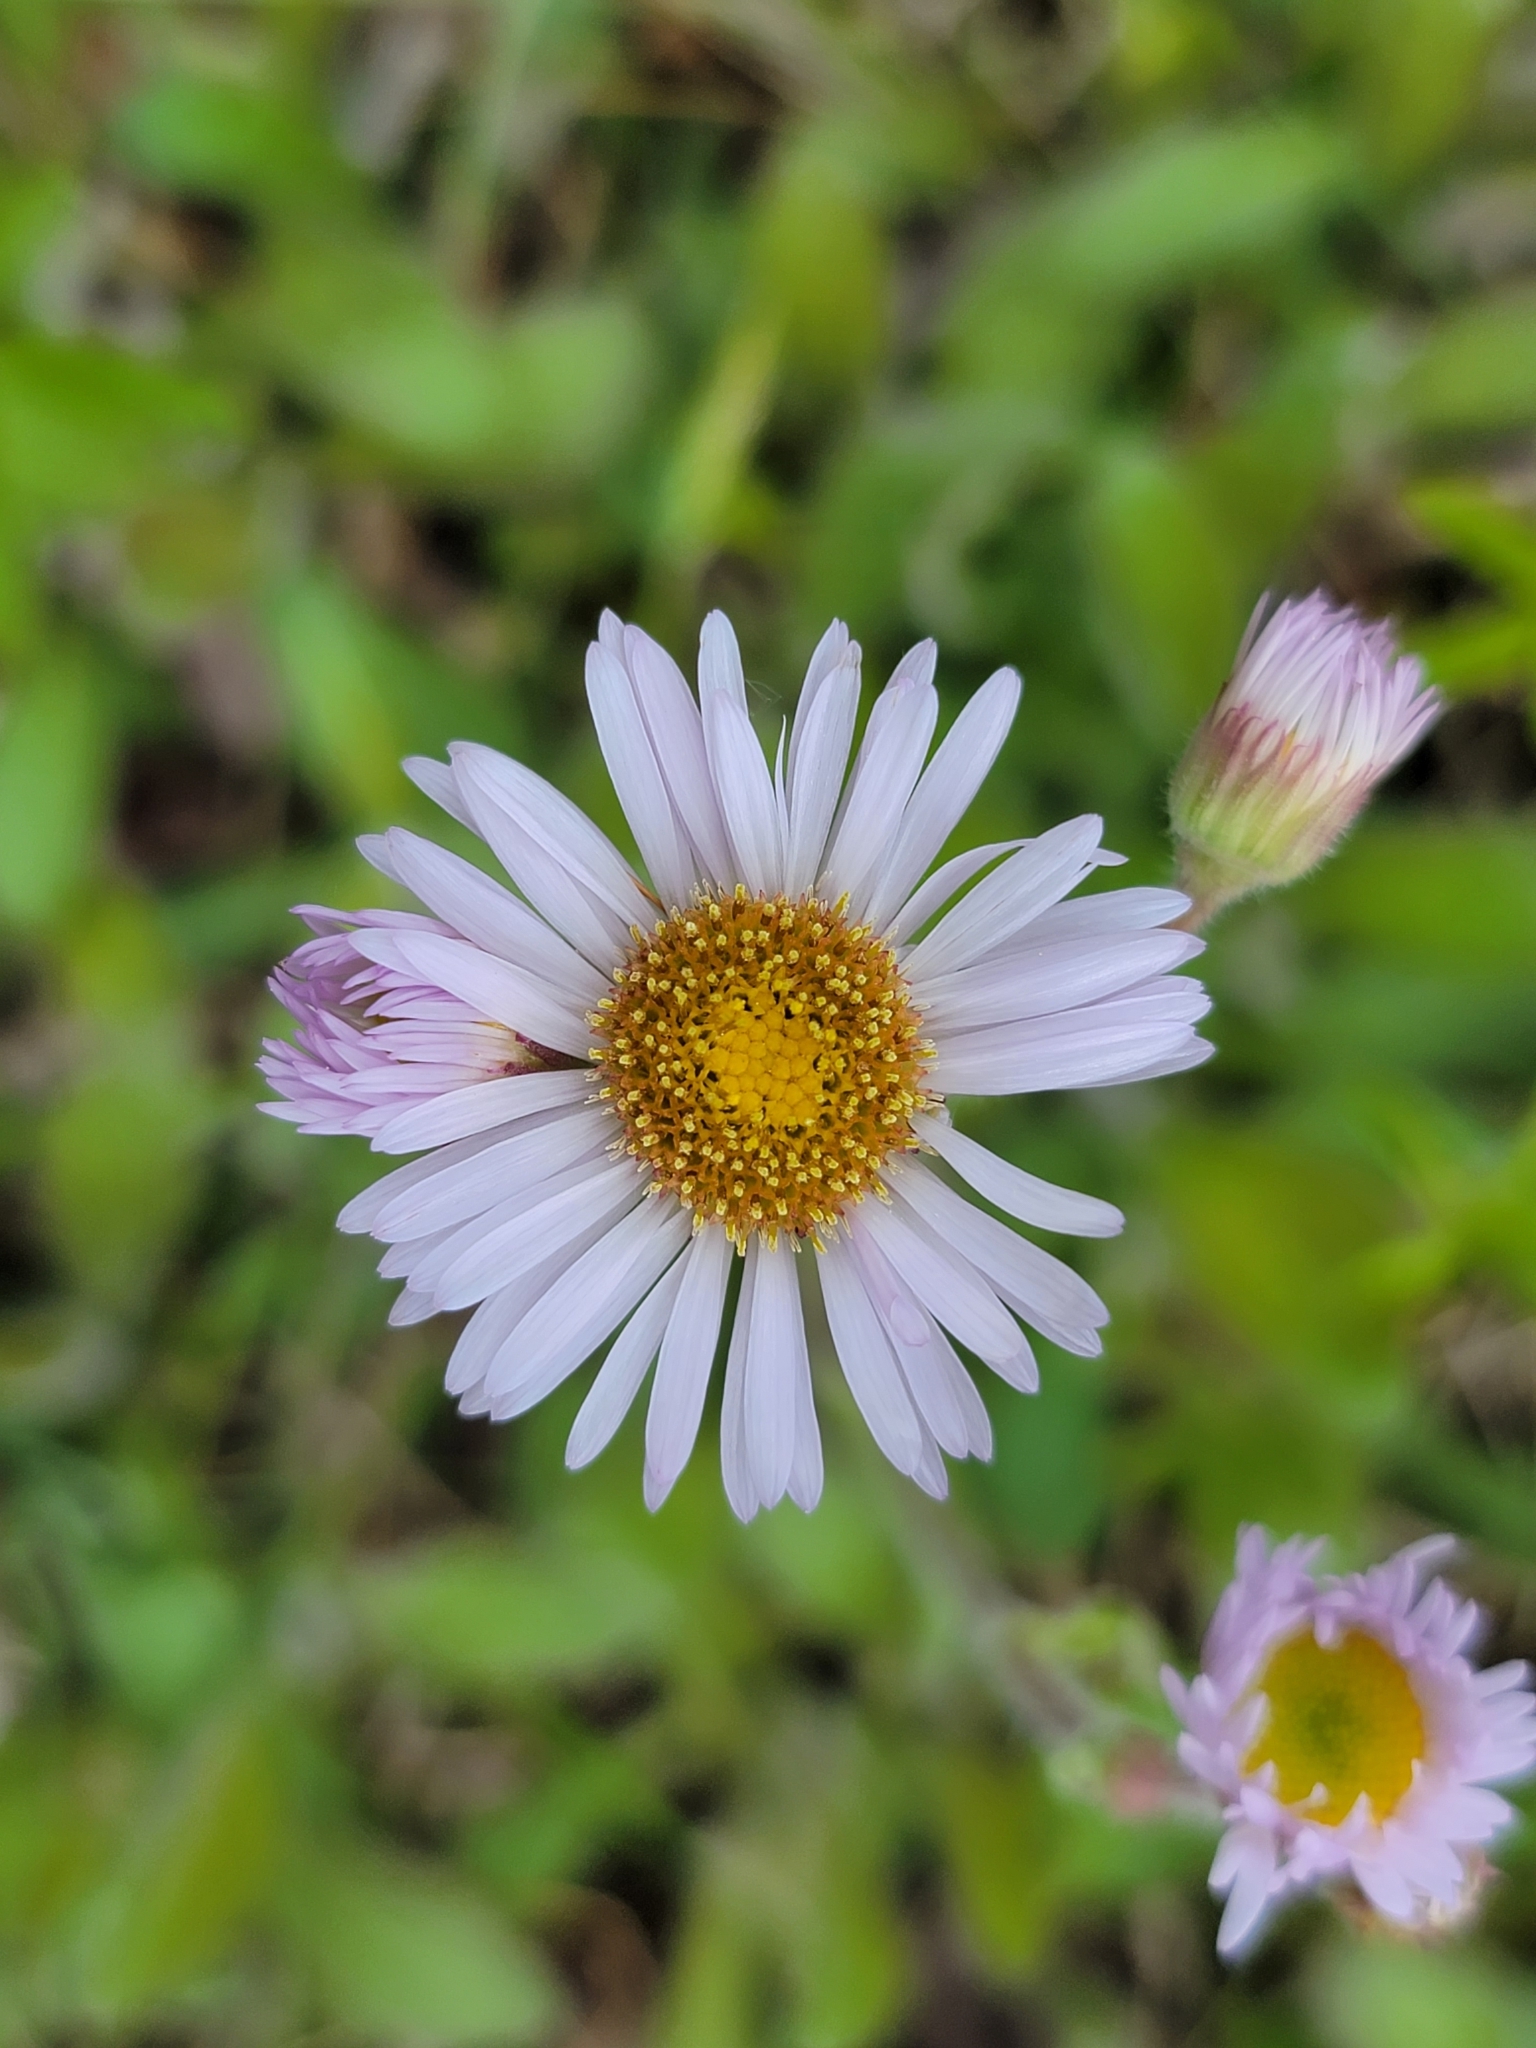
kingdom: Plantae
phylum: Tracheophyta
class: Magnoliopsida
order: Asterales
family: Asteraceae
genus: Erigeron
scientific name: Erigeron pulchellus
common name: Hairy fleabane
